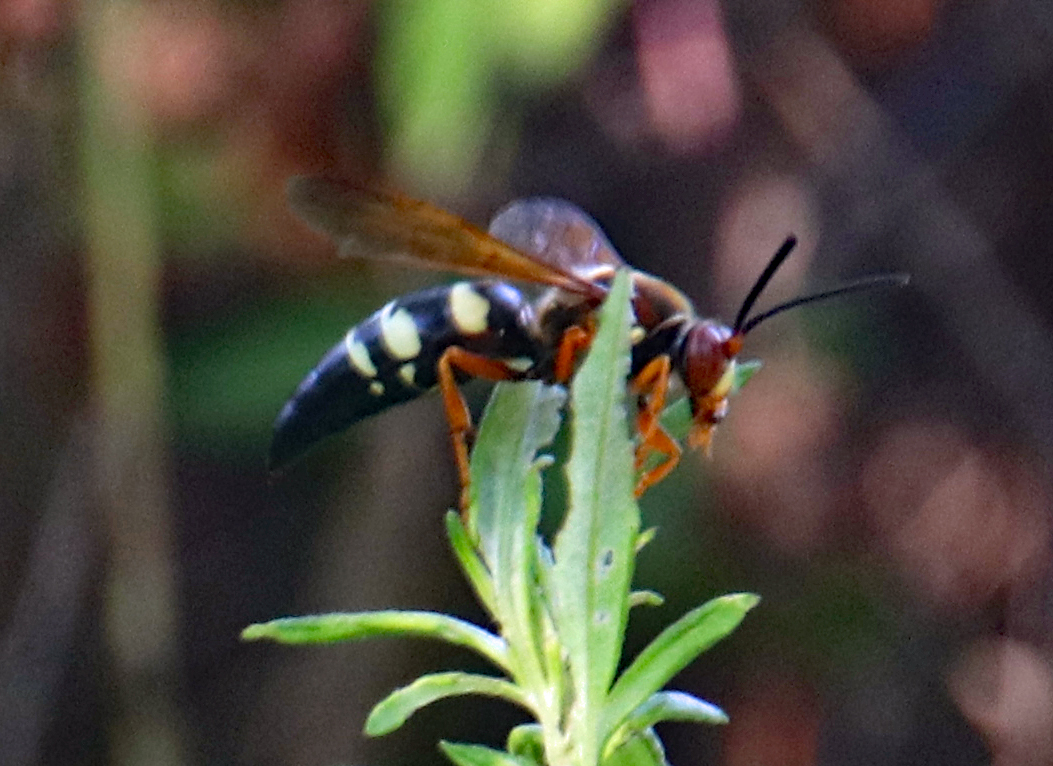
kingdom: Animalia
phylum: Arthropoda
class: Insecta
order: Hymenoptera
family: Crabronidae
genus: Sphecius
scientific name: Sphecius speciosus
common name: Cicada killer
